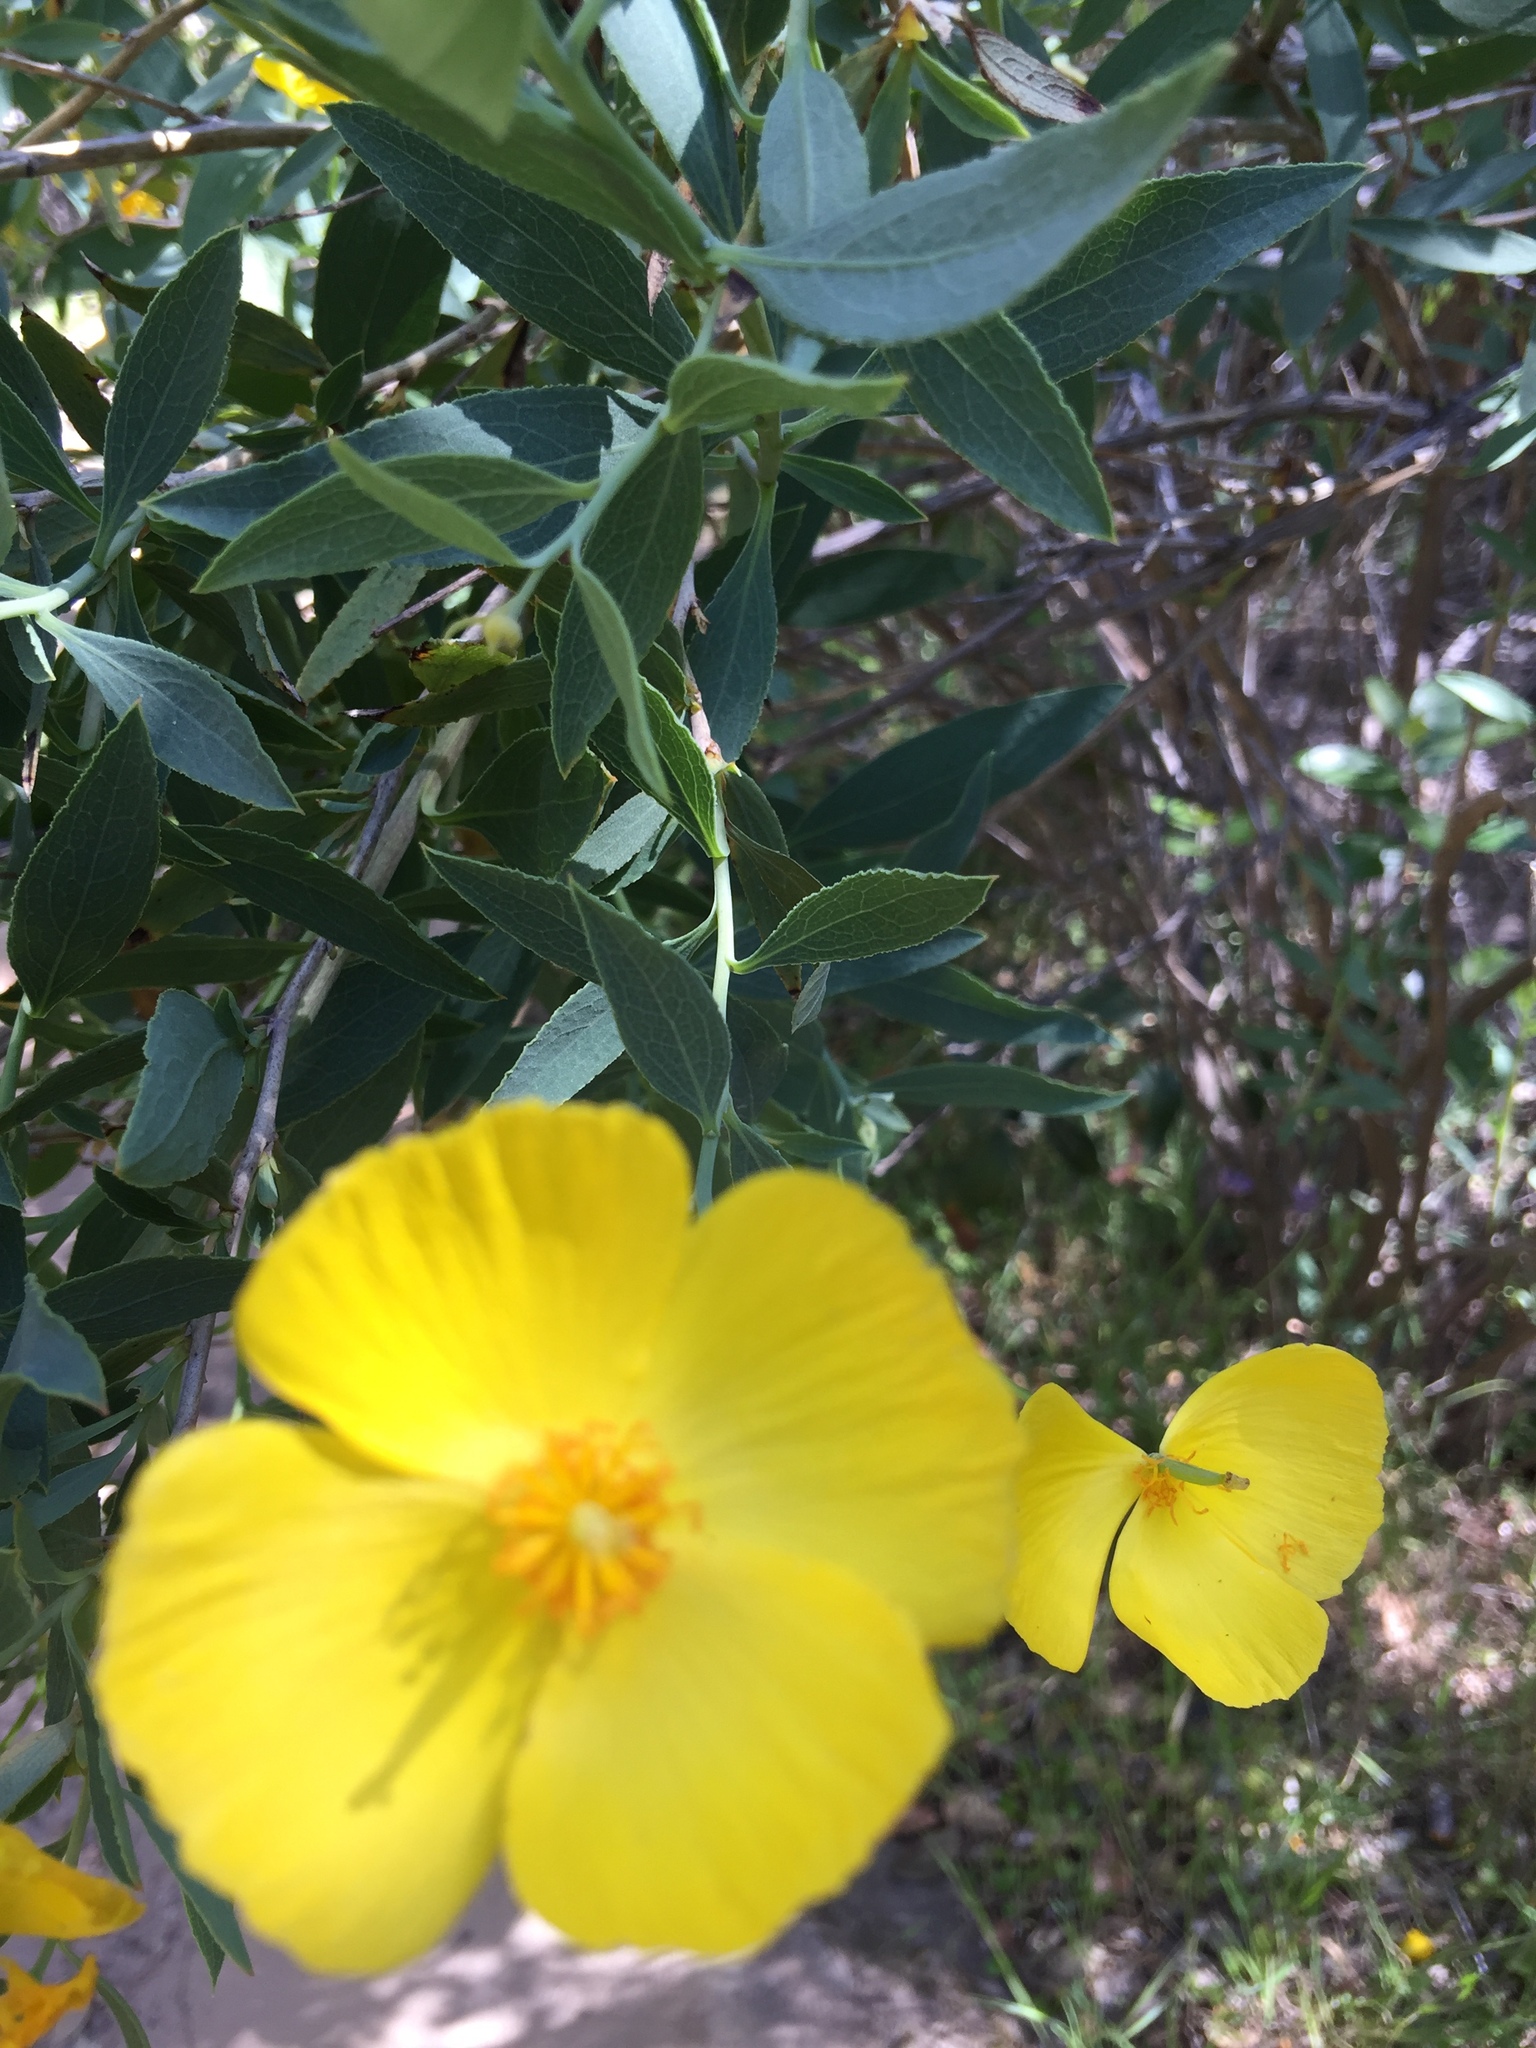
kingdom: Plantae
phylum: Tracheophyta
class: Magnoliopsida
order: Ranunculales
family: Papaveraceae
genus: Dendromecon
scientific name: Dendromecon rigida
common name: Tree poppy
